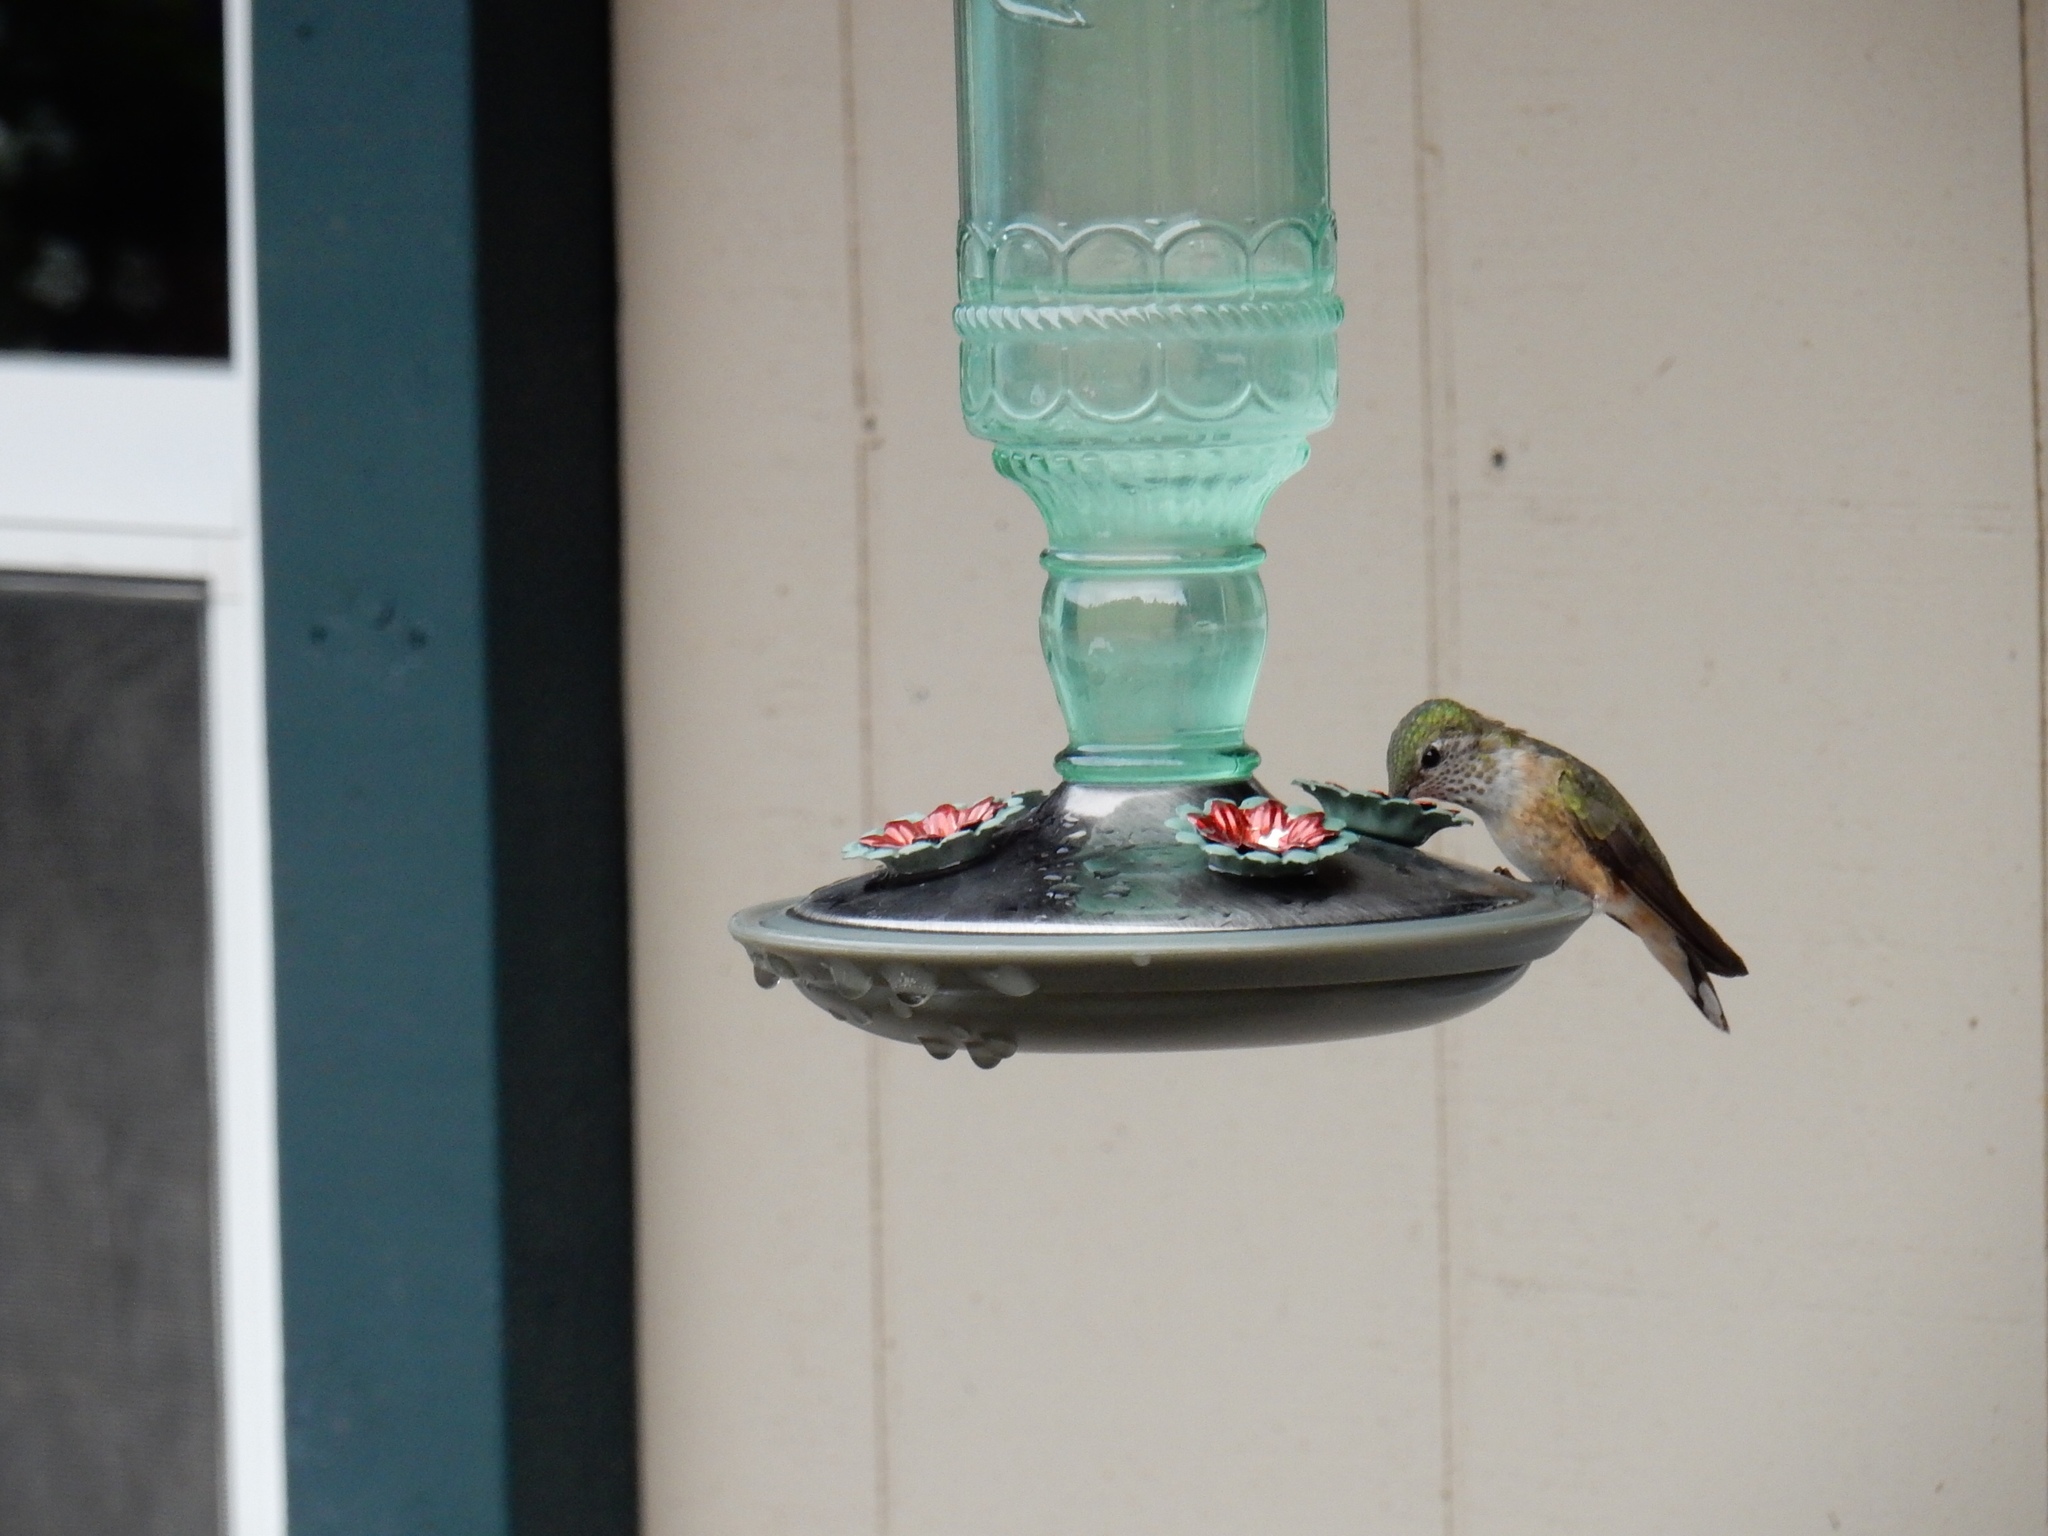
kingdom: Animalia
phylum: Chordata
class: Aves
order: Apodiformes
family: Trochilidae
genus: Selasphorus
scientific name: Selasphorus platycercus
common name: Broad-tailed hummingbird
